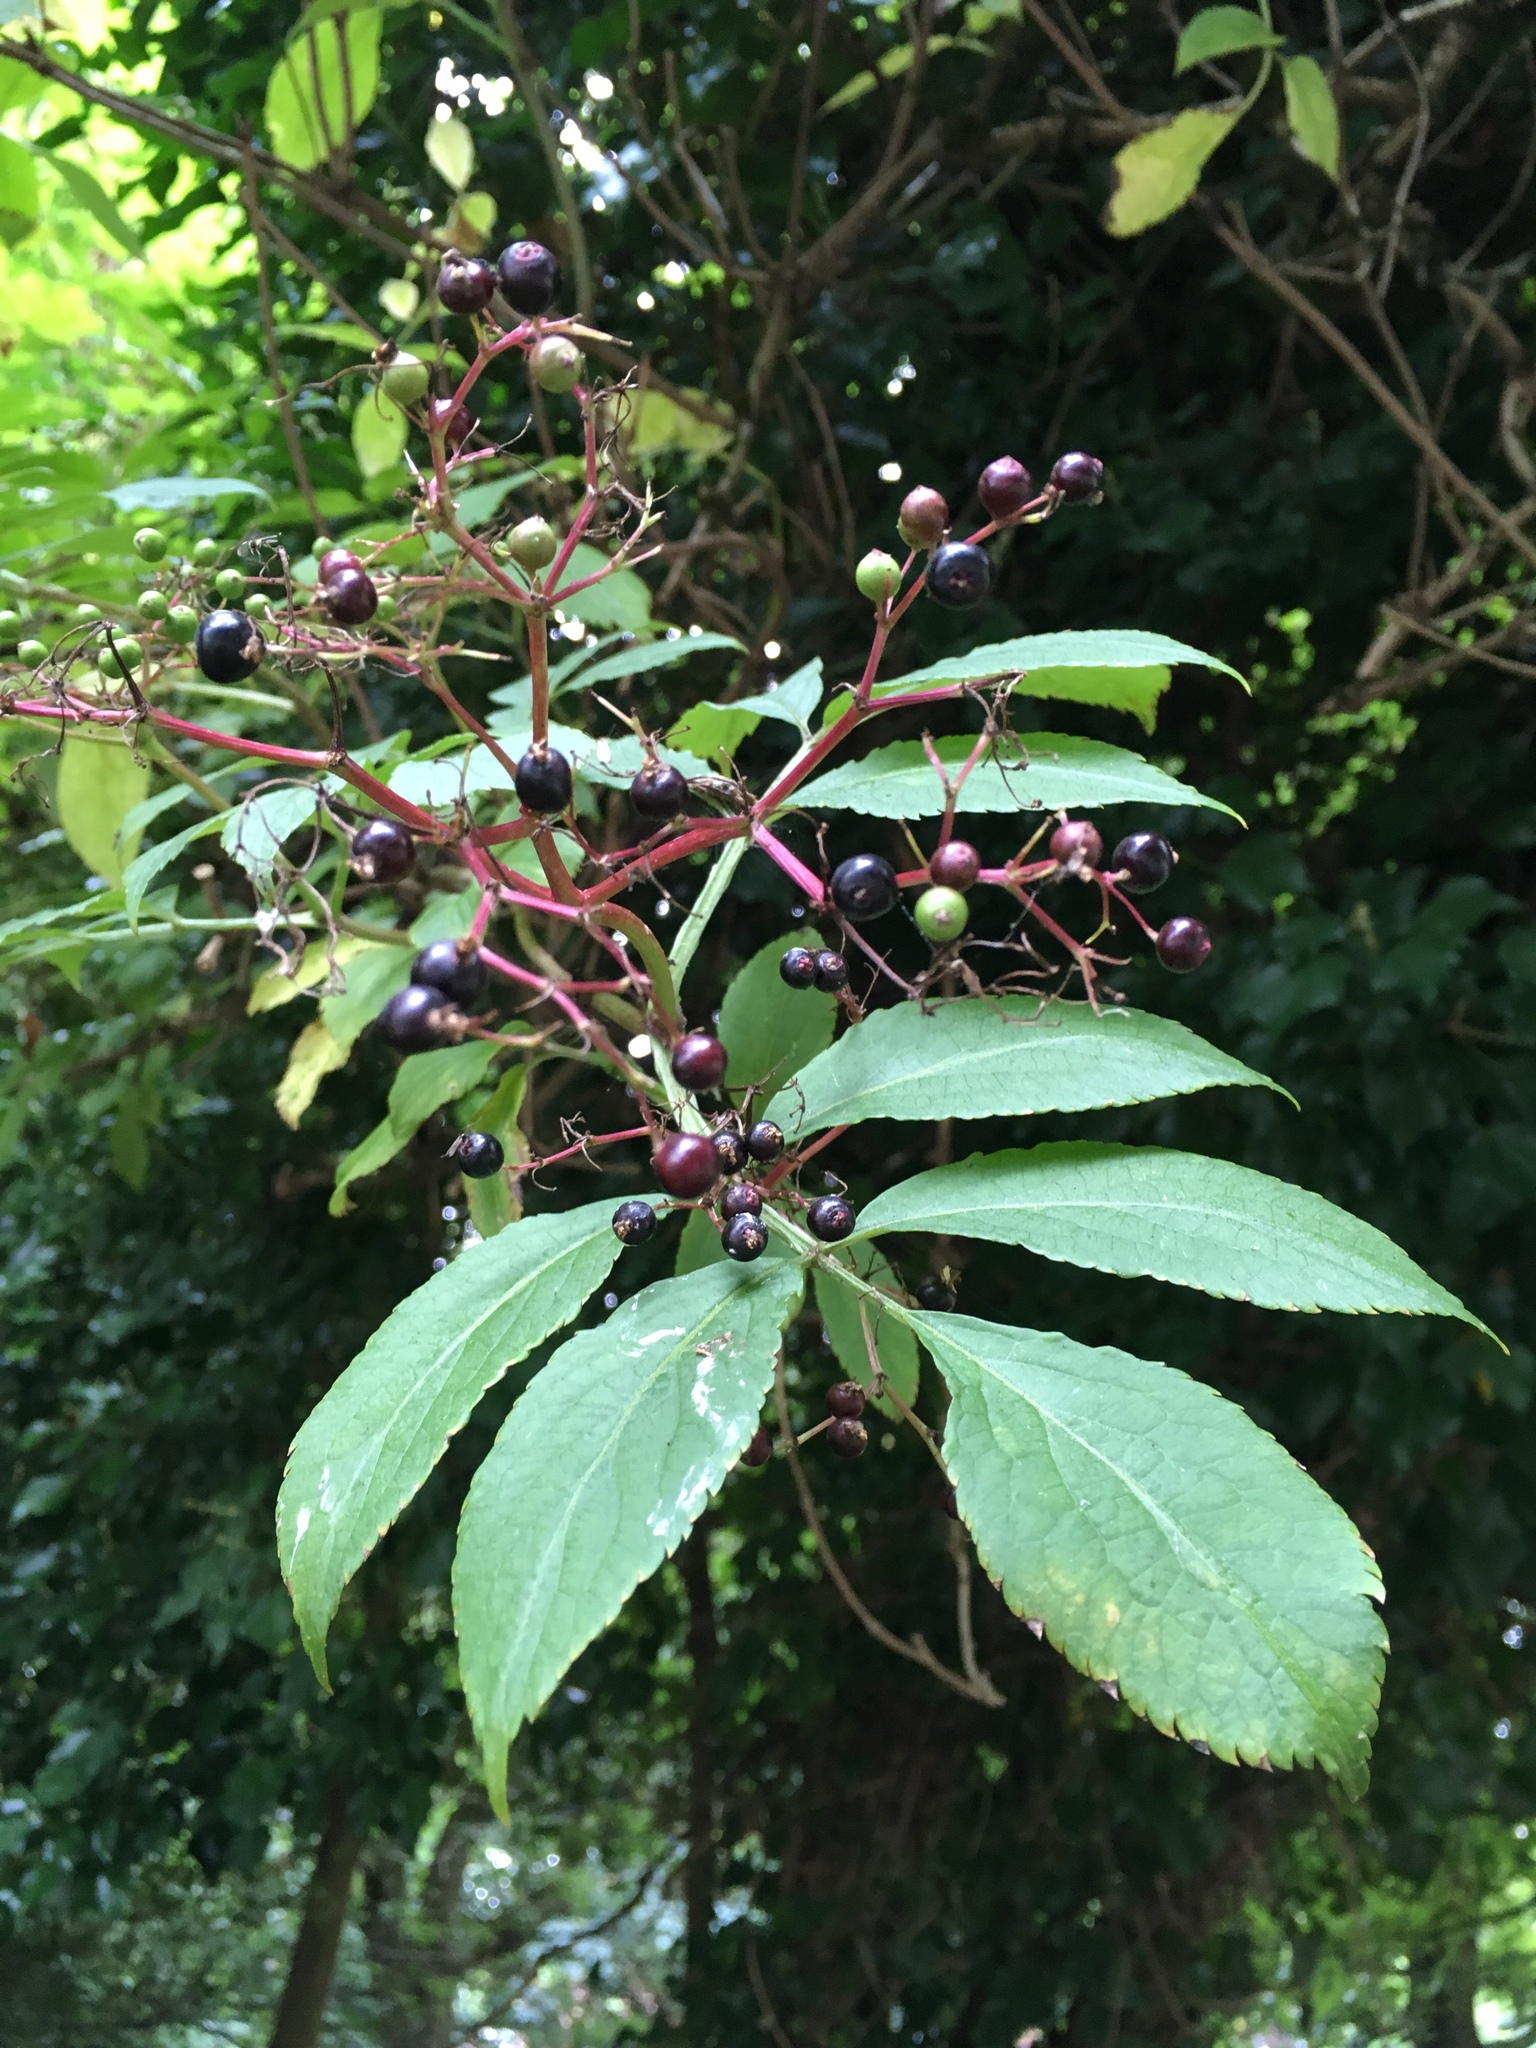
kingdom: Plantae
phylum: Tracheophyta
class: Magnoliopsida
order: Dipsacales
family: Viburnaceae
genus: Sambucus
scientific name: Sambucus nigra
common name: Elder
